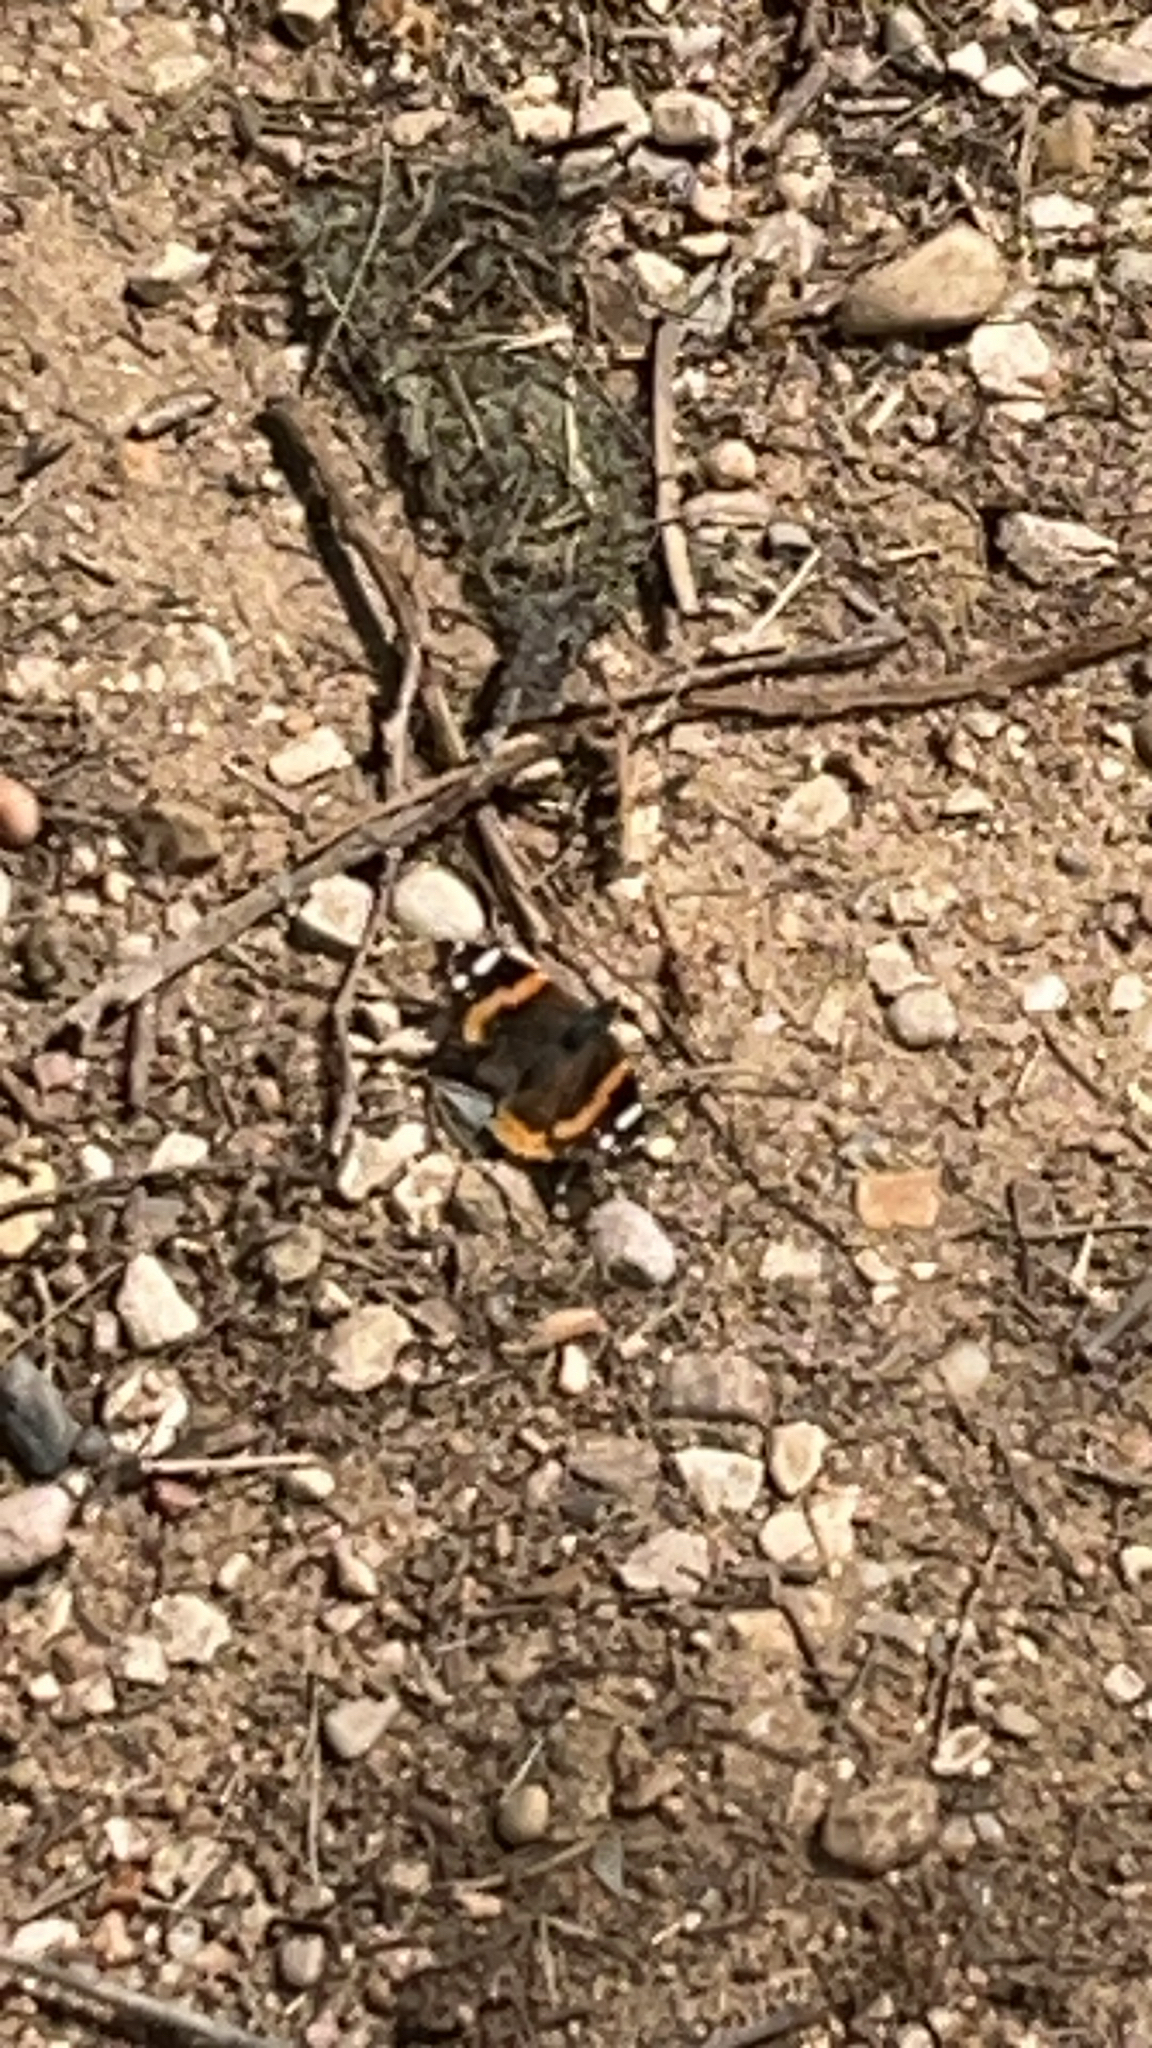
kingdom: Animalia
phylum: Arthropoda
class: Insecta
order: Lepidoptera
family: Nymphalidae
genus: Vanessa
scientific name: Vanessa atalanta
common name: Red admiral
